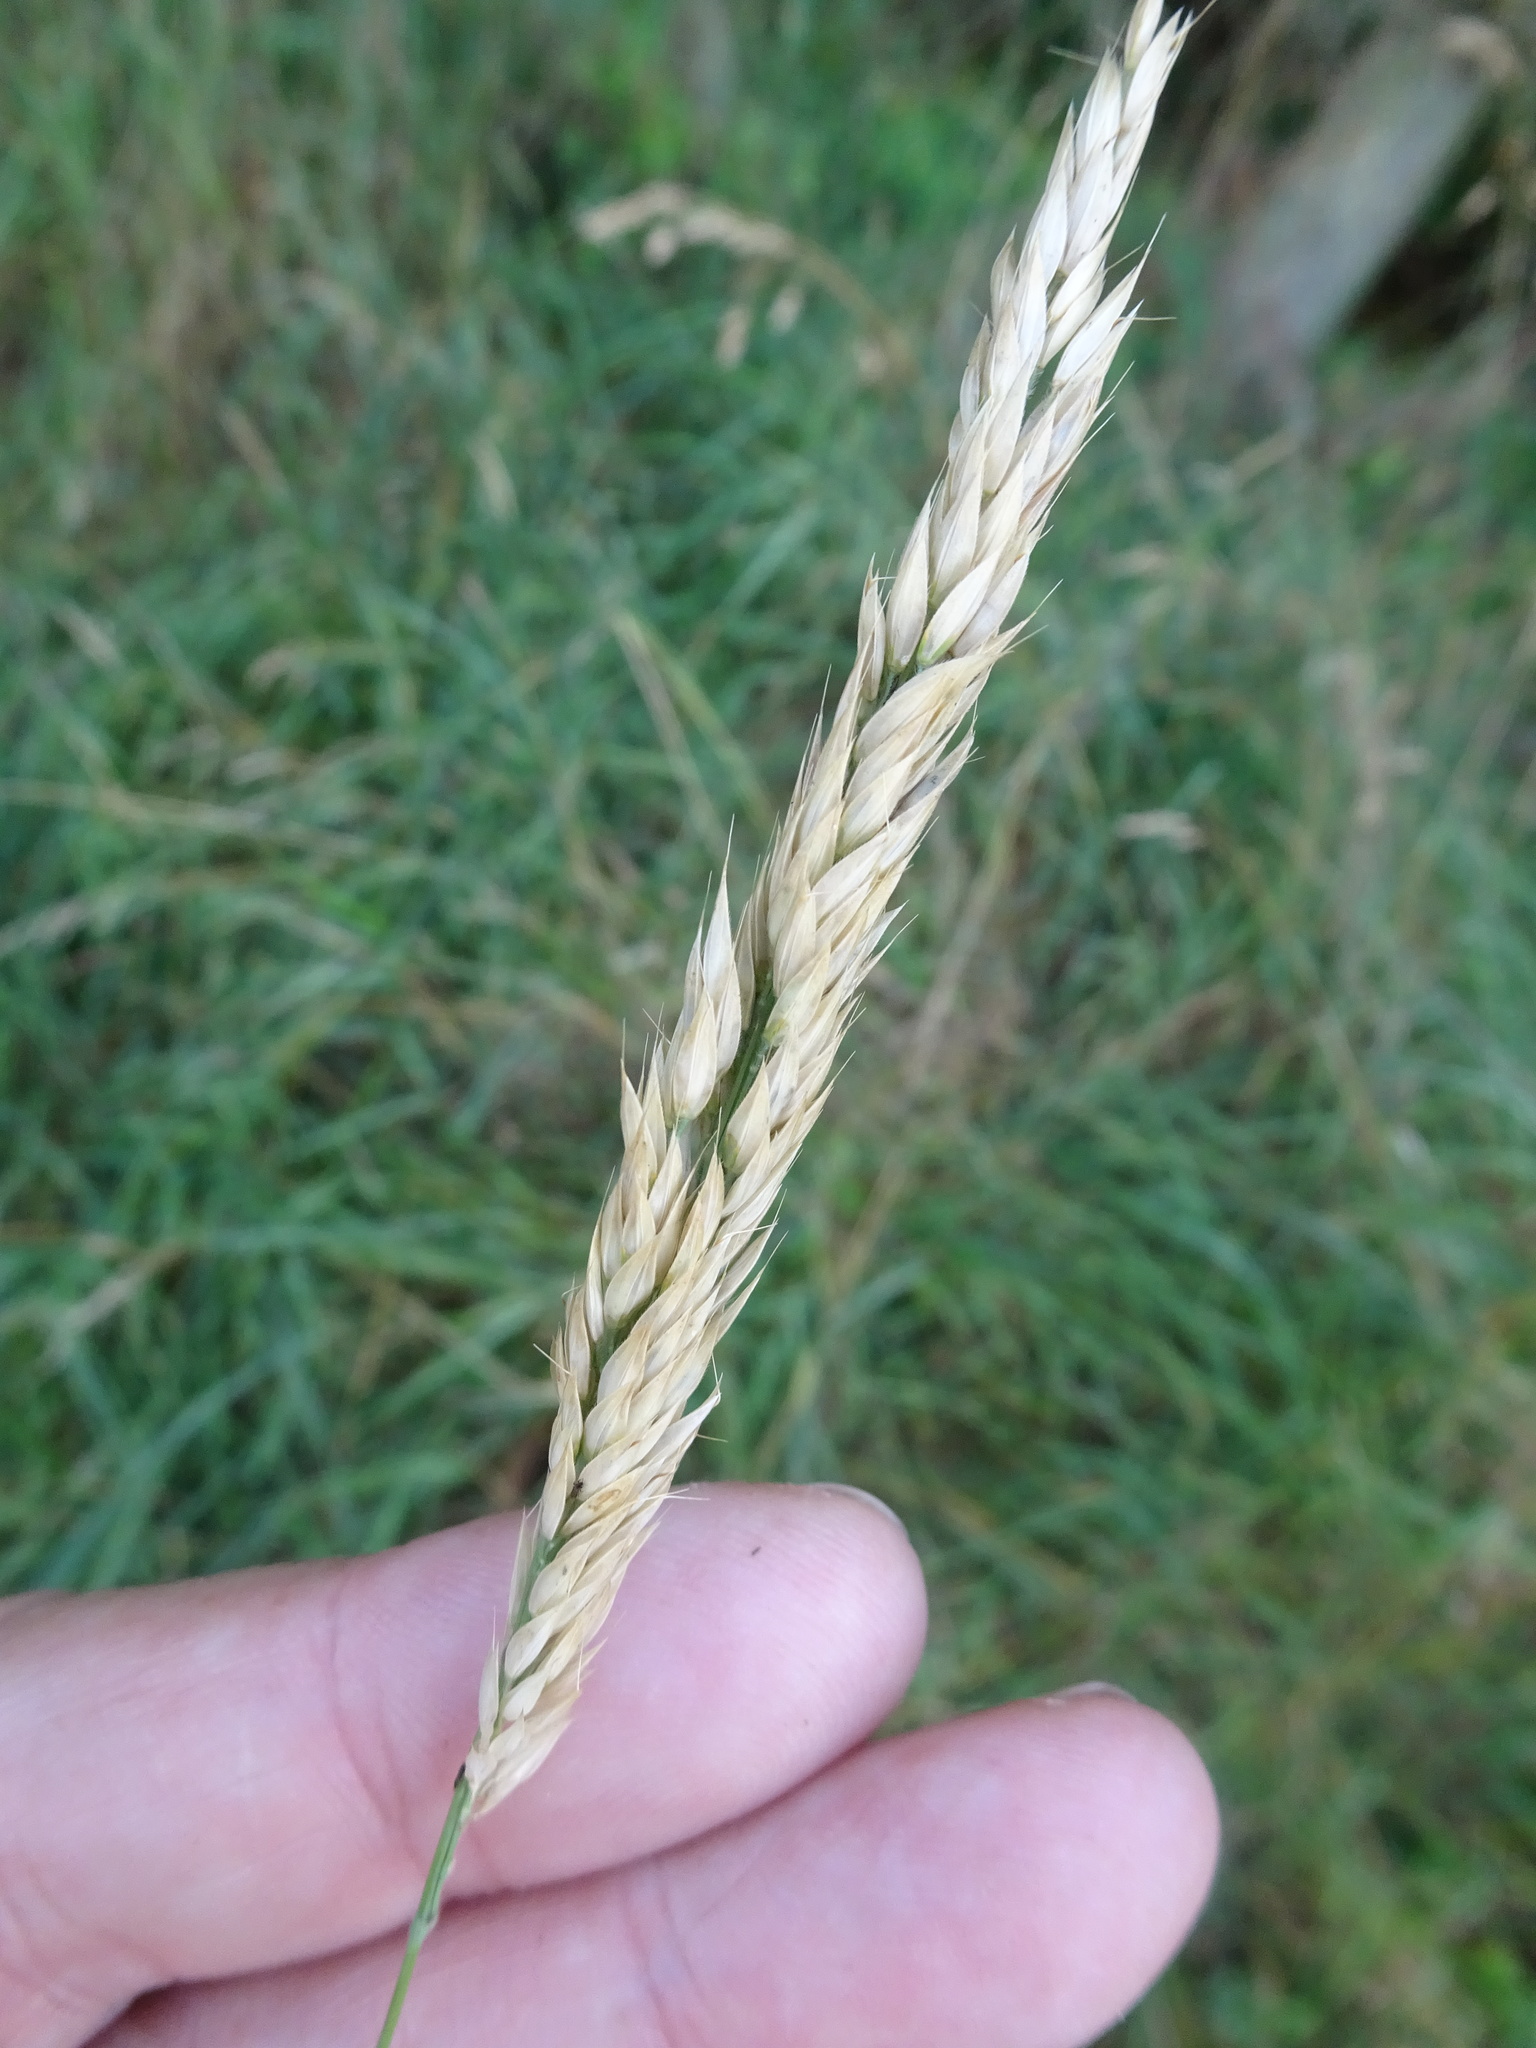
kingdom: Plantae
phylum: Tracheophyta
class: Liliopsida
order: Poales
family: Poaceae
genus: Holcus
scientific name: Holcus mollis
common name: Creeping velvetgrass
